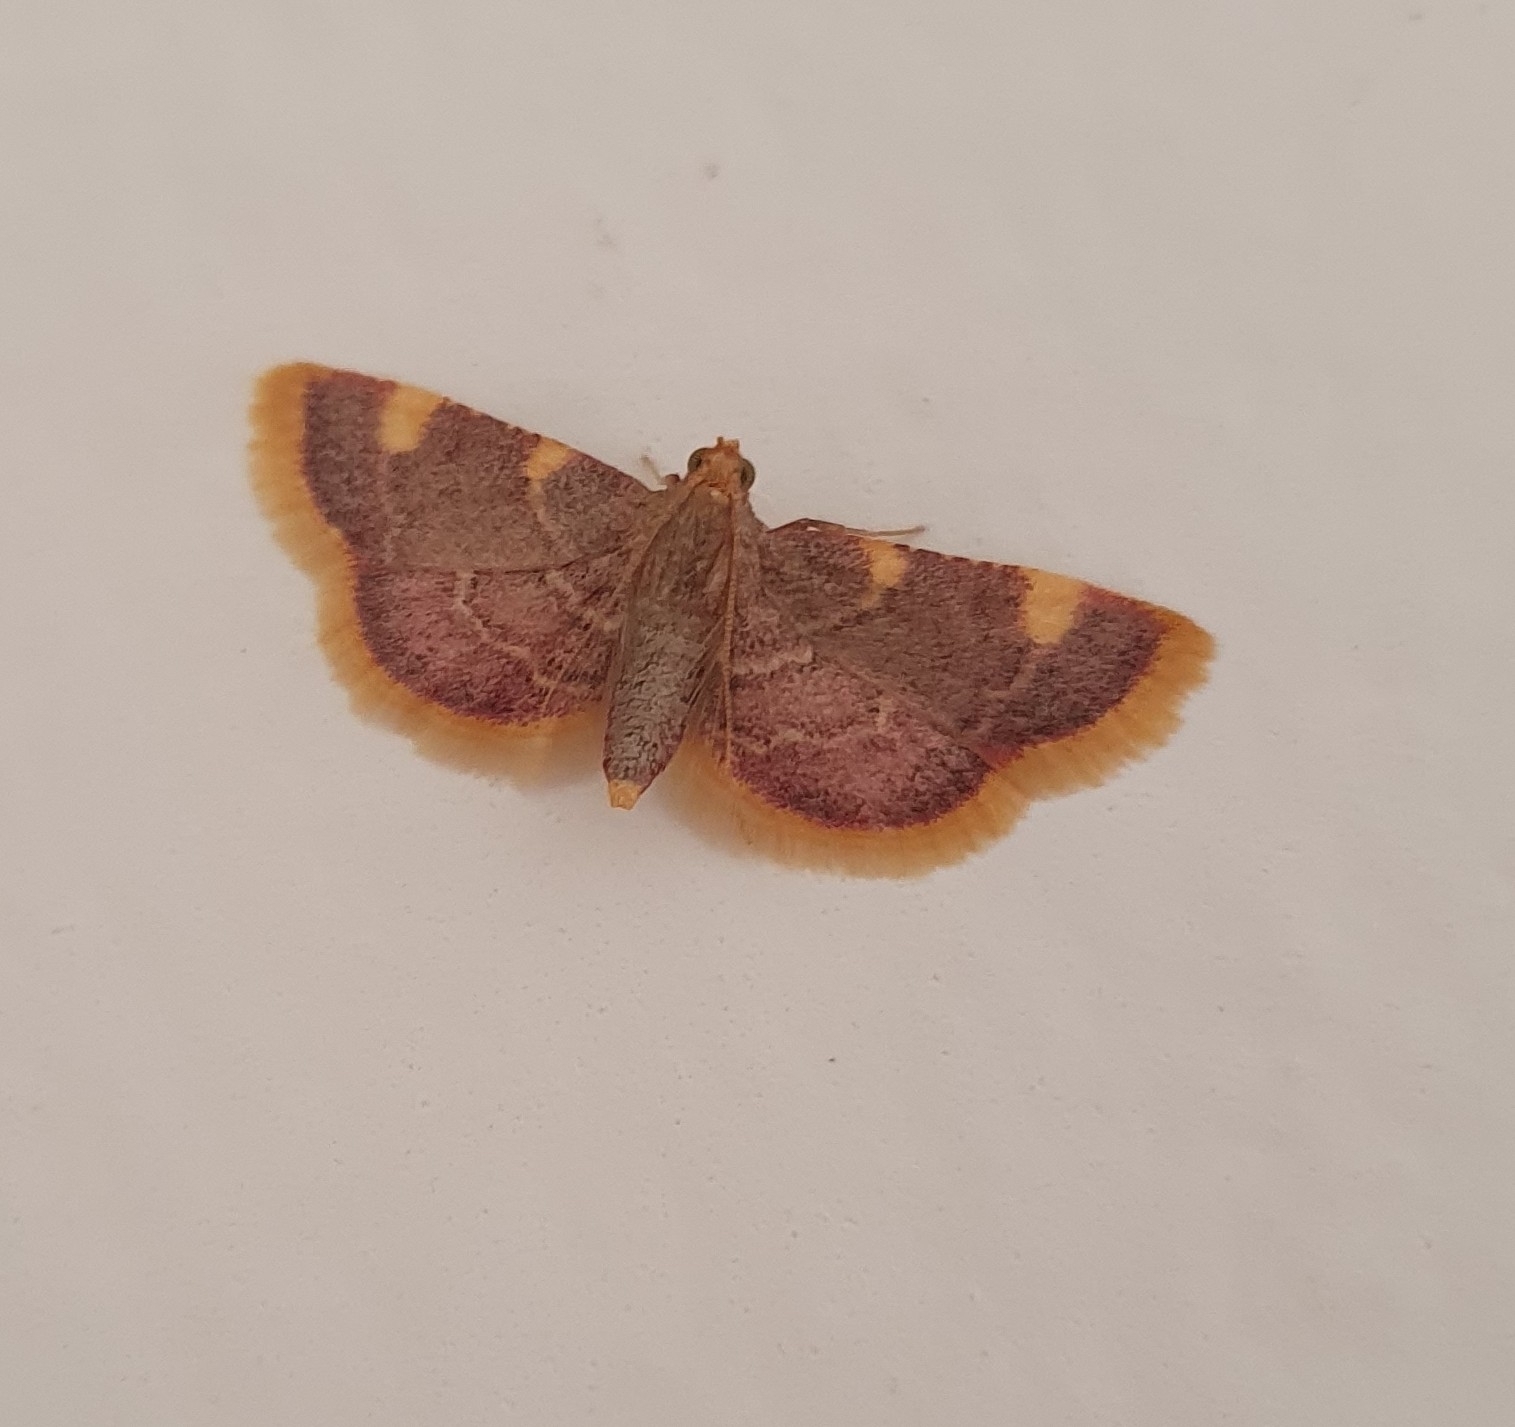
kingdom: Animalia
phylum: Arthropoda
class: Insecta
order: Lepidoptera
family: Pyralidae
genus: Hypsopygia
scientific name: Hypsopygia costalis
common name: Gold triangle
